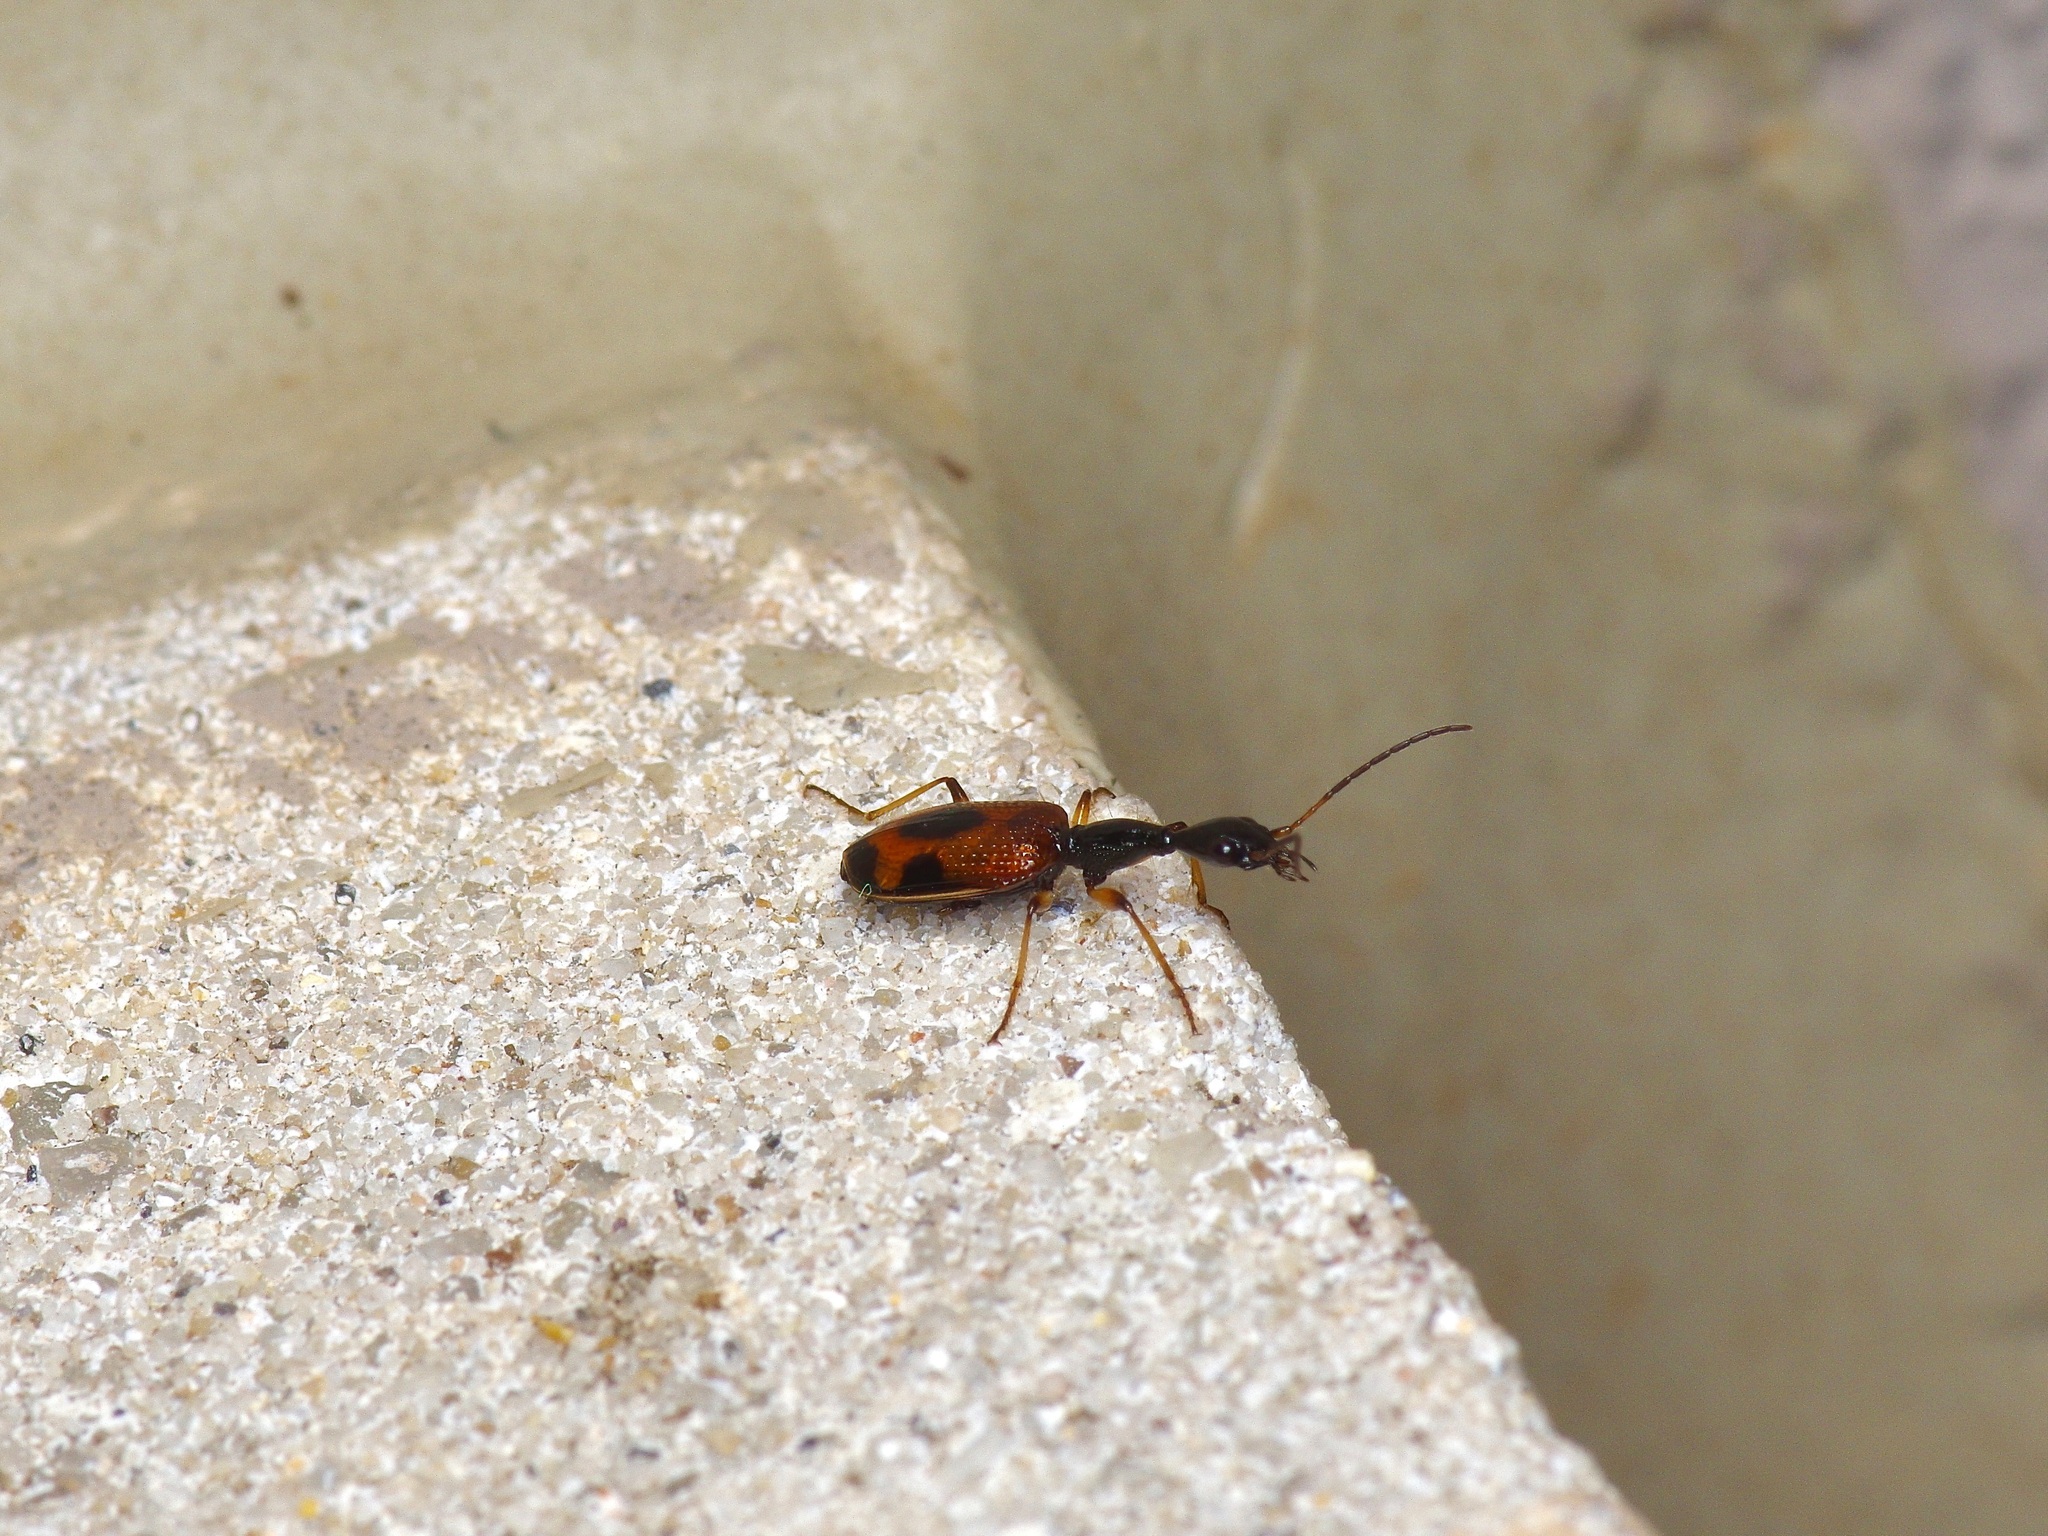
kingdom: Animalia
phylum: Arthropoda
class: Insecta
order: Coleoptera
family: Carabidae
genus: Colliuris
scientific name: Colliuris pensylvanica
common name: Long-necked ground beetle
